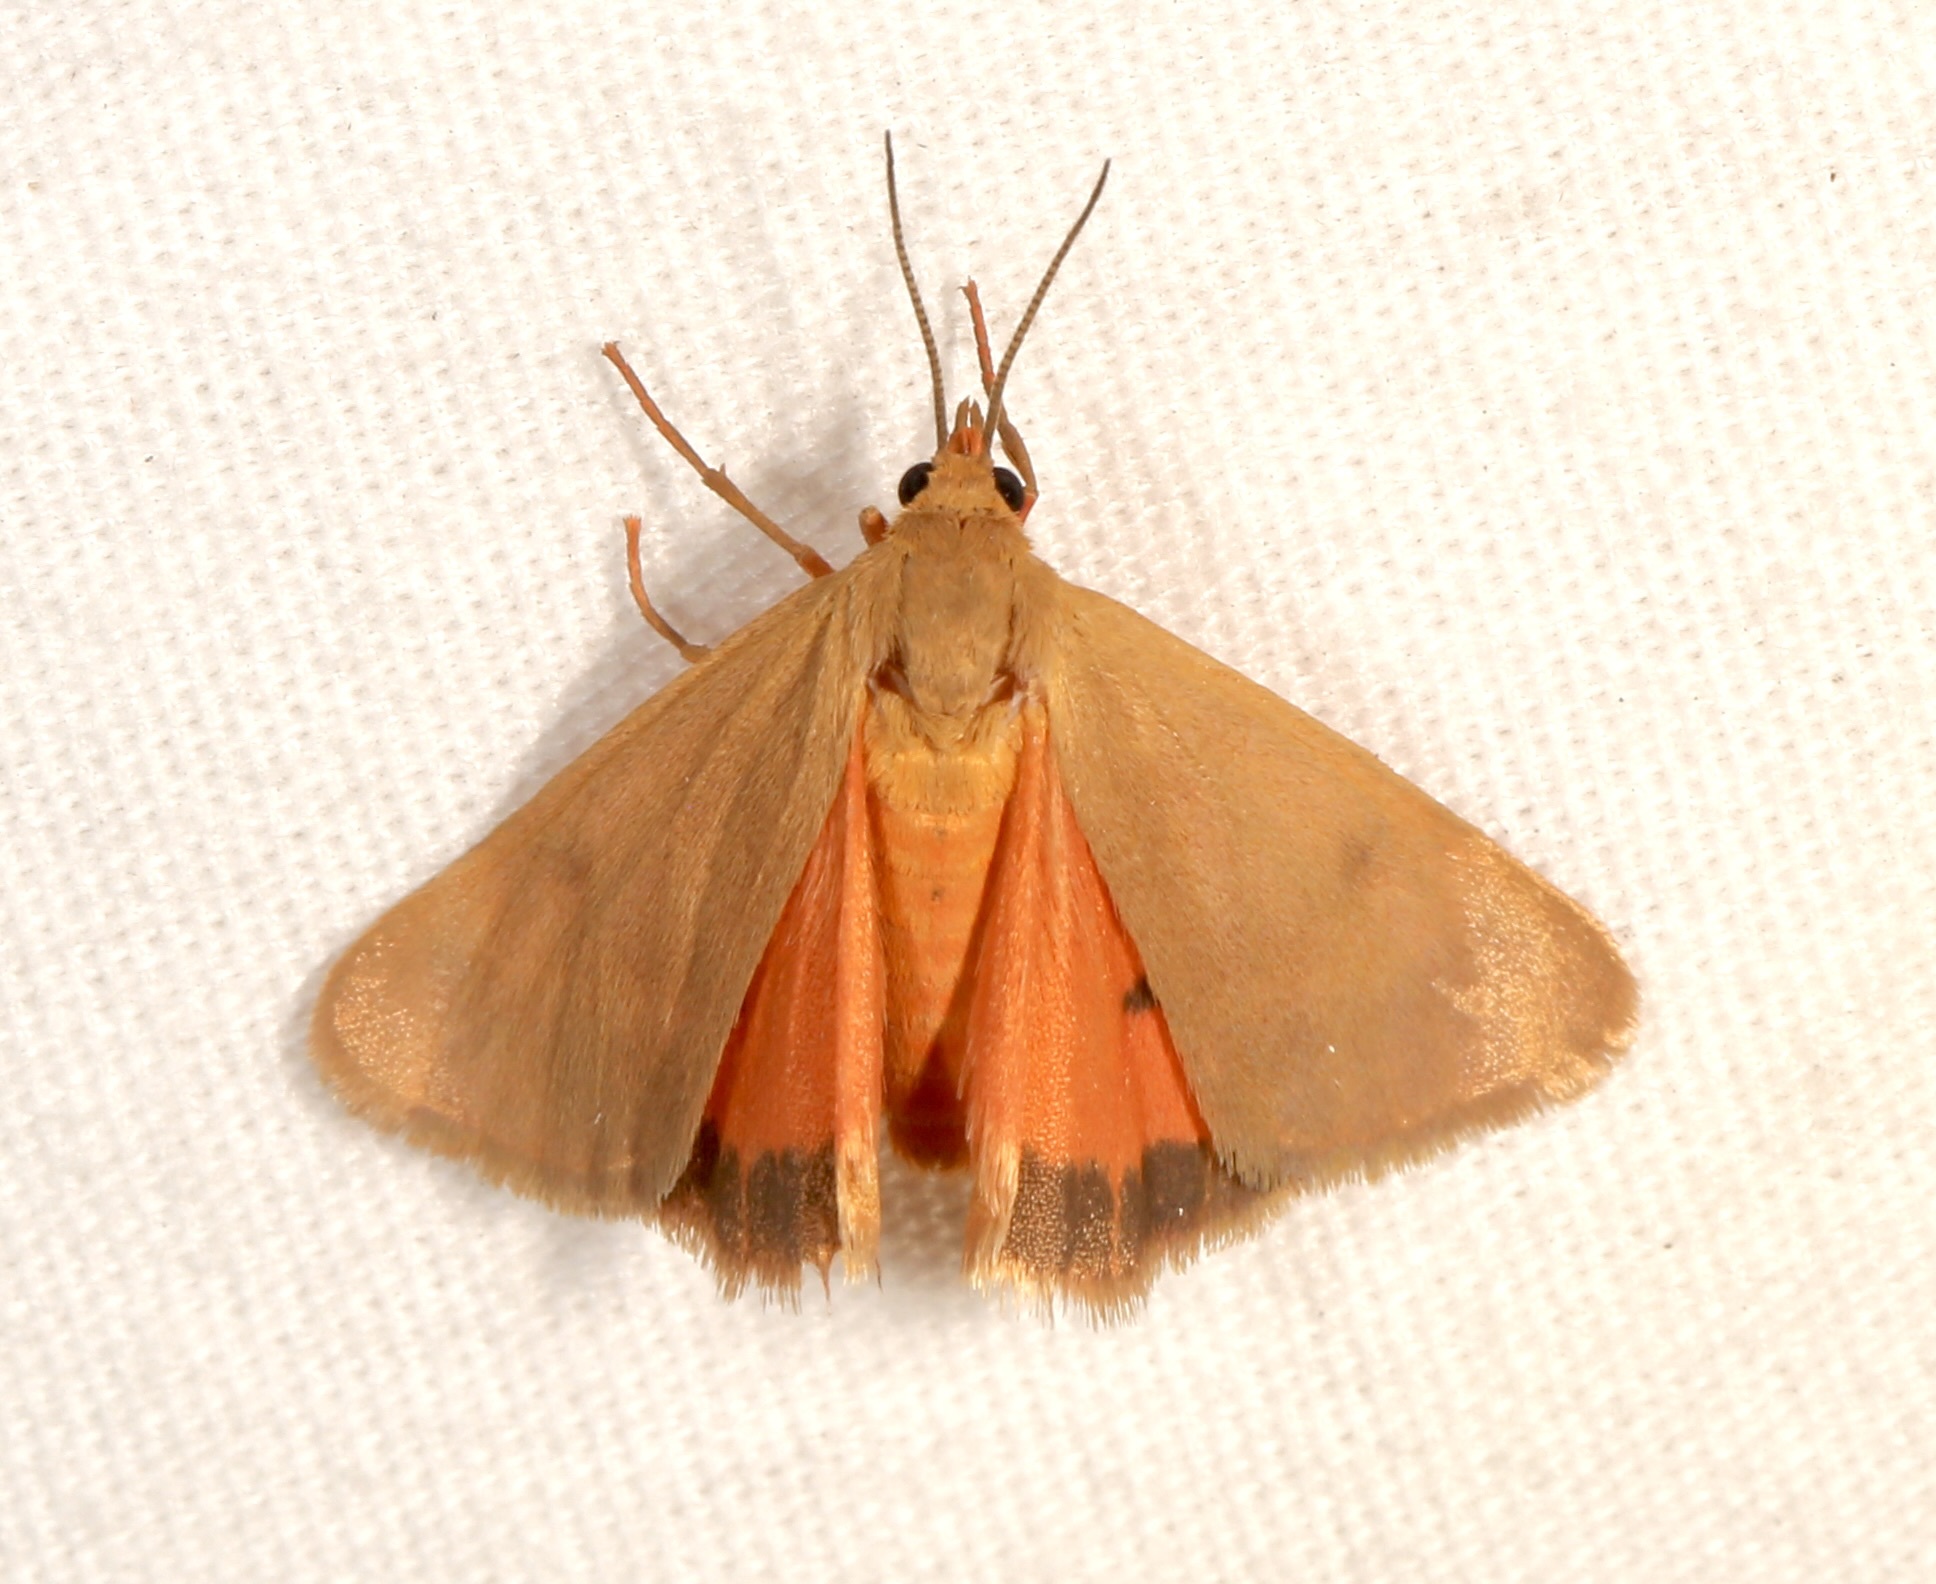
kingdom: Animalia
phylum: Arthropoda
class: Insecta
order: Lepidoptera
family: Erebidae
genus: Virbia
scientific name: Virbia aurantiaca
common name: Orange virbia moth
